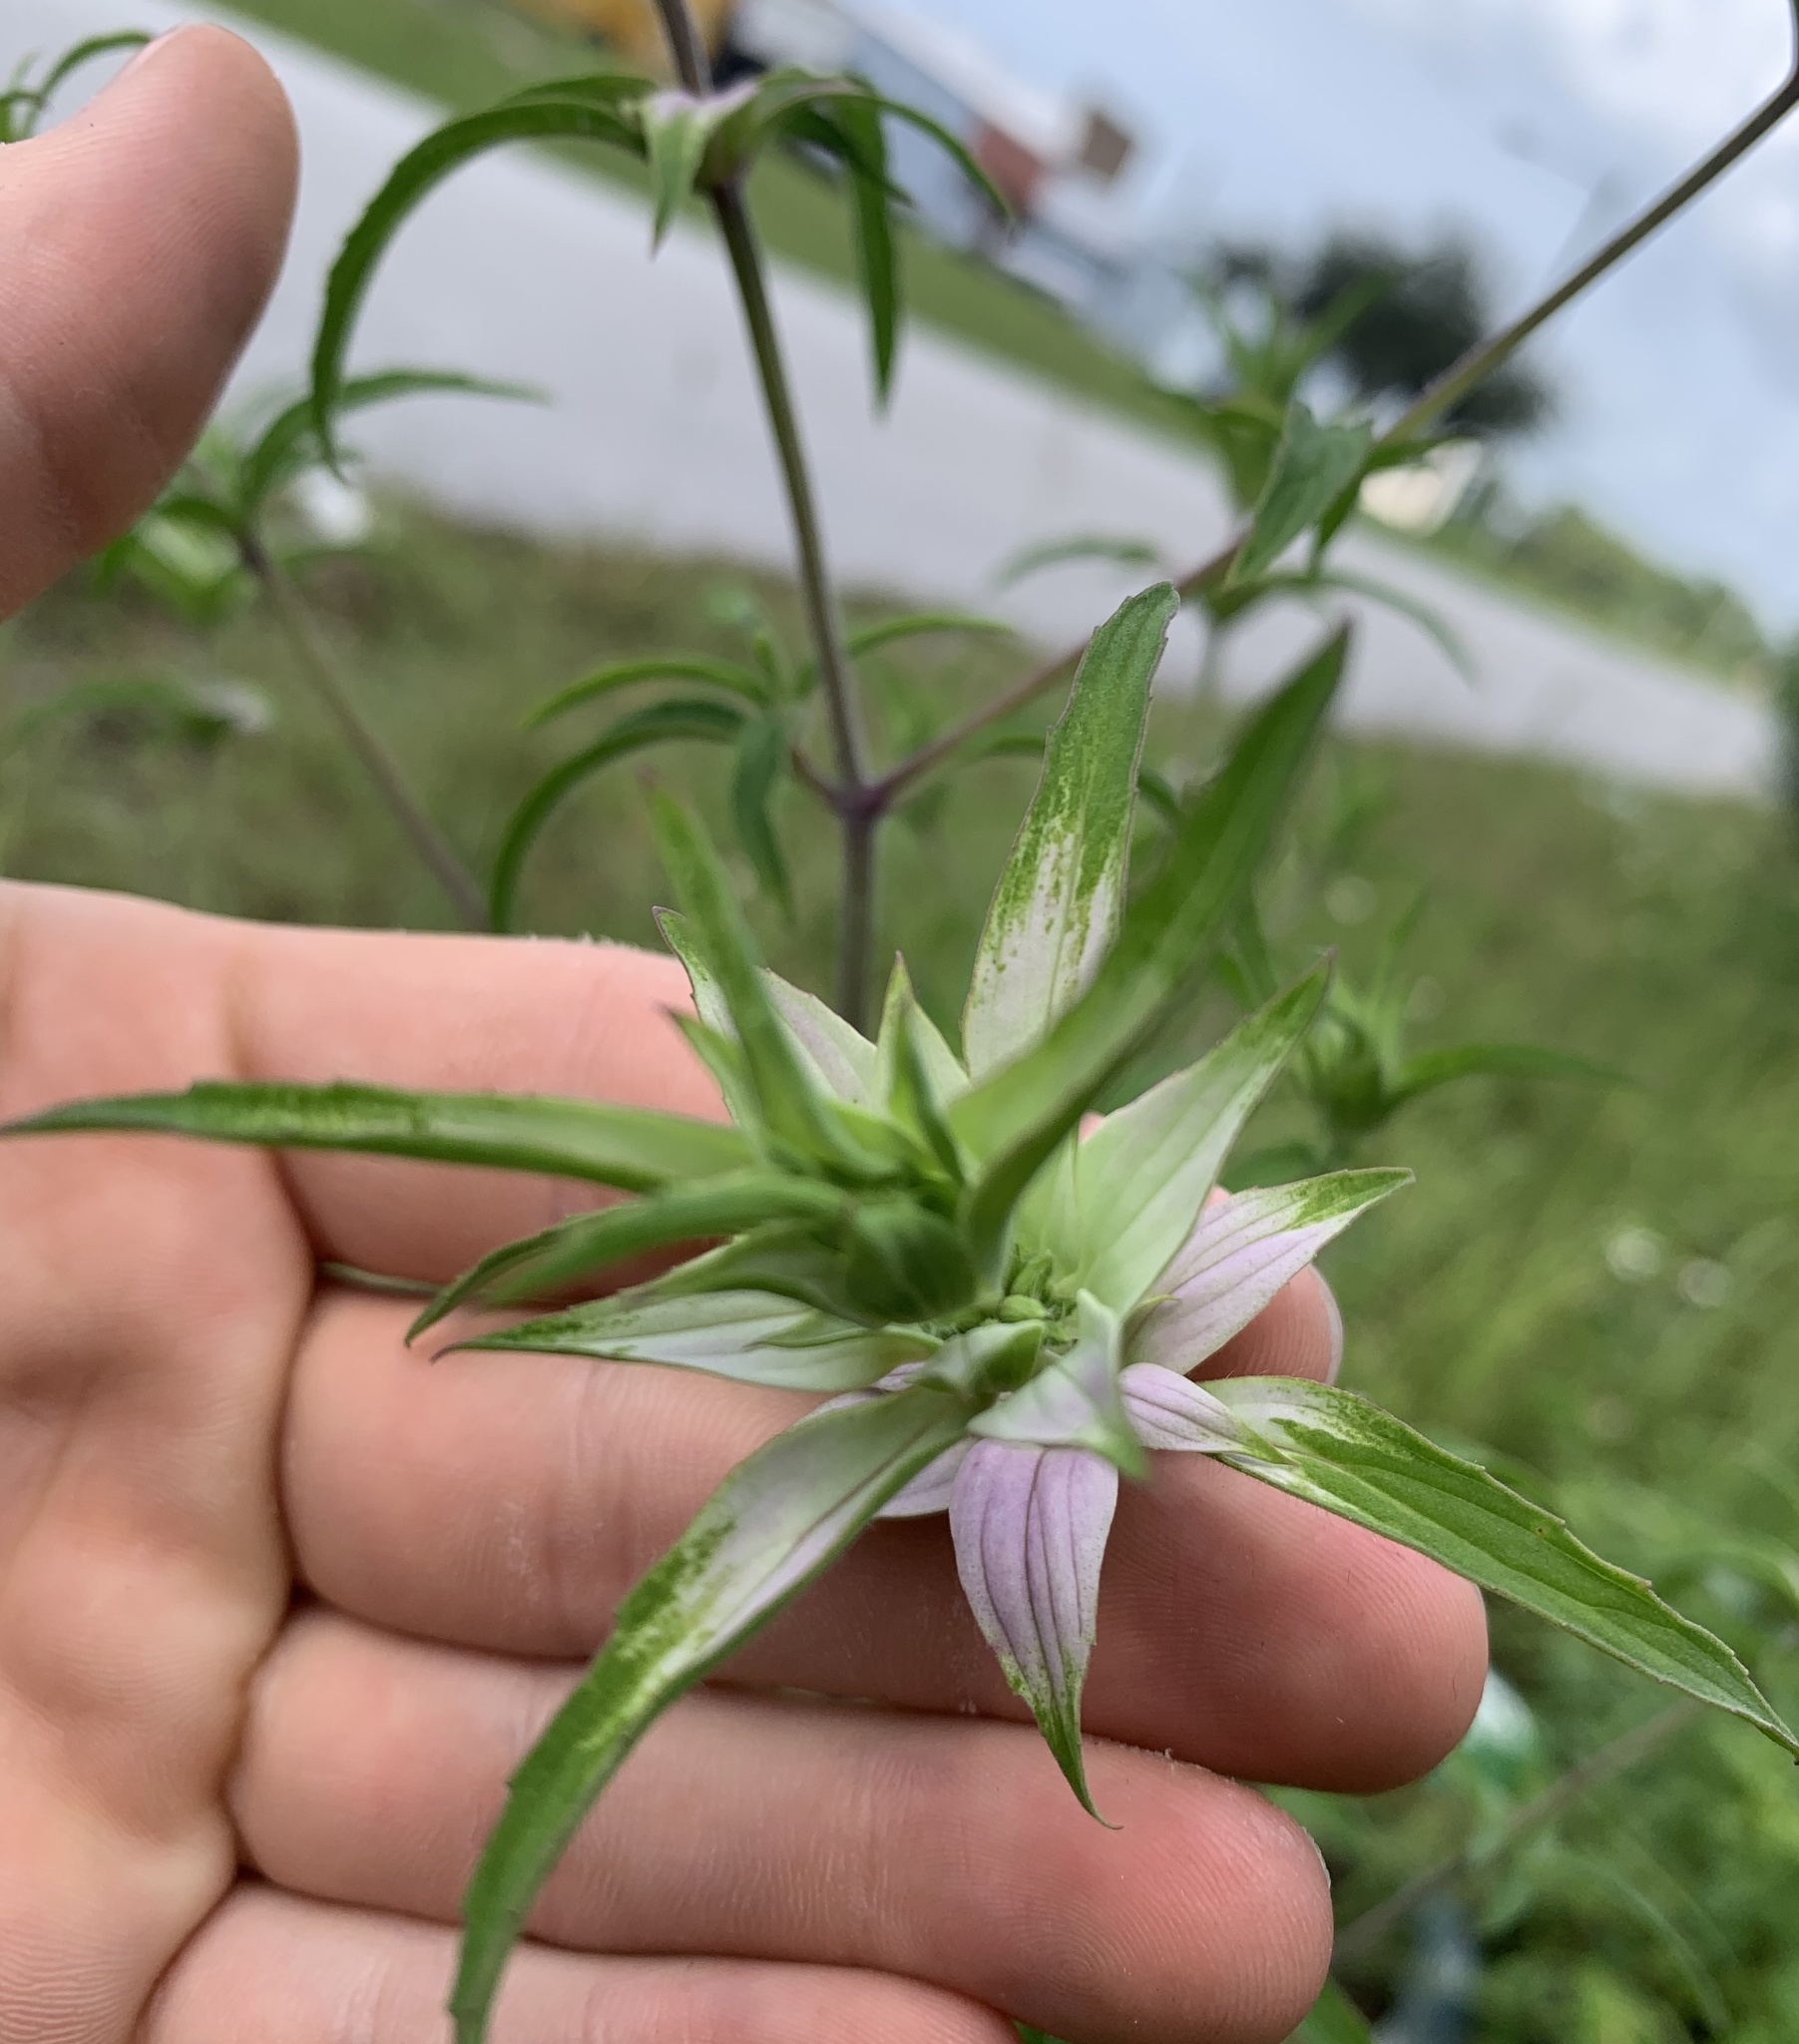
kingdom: Plantae
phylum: Tracheophyta
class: Magnoliopsida
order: Lamiales
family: Lamiaceae
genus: Monarda
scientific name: Monarda punctata
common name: Dotted monarda
